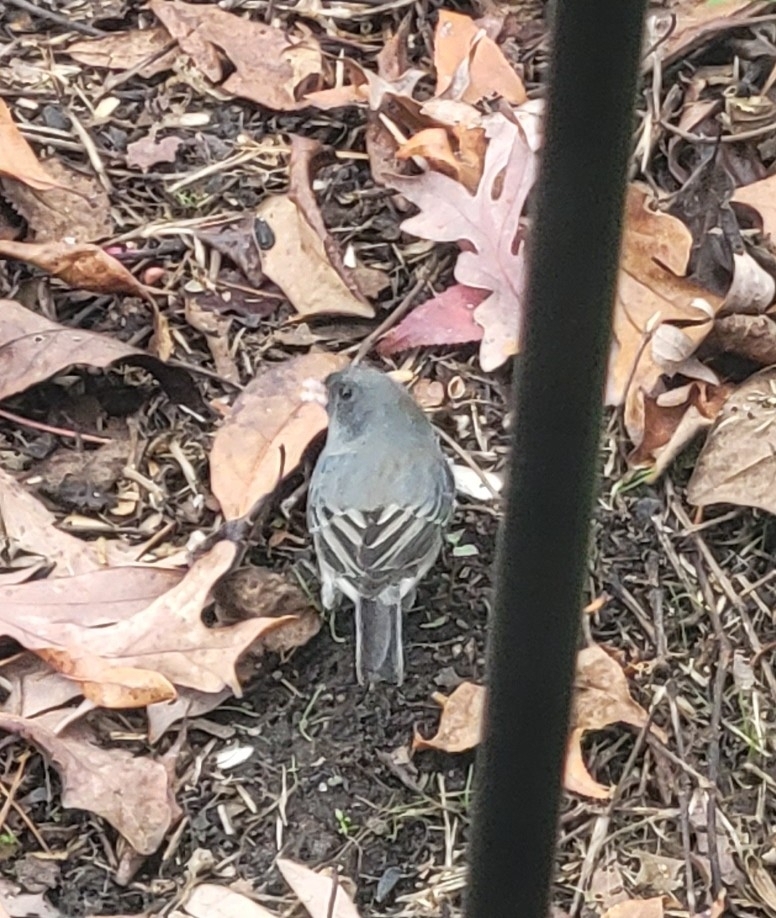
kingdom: Animalia
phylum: Chordata
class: Aves
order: Passeriformes
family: Passerellidae
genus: Junco
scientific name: Junco hyemalis
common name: Dark-eyed junco
